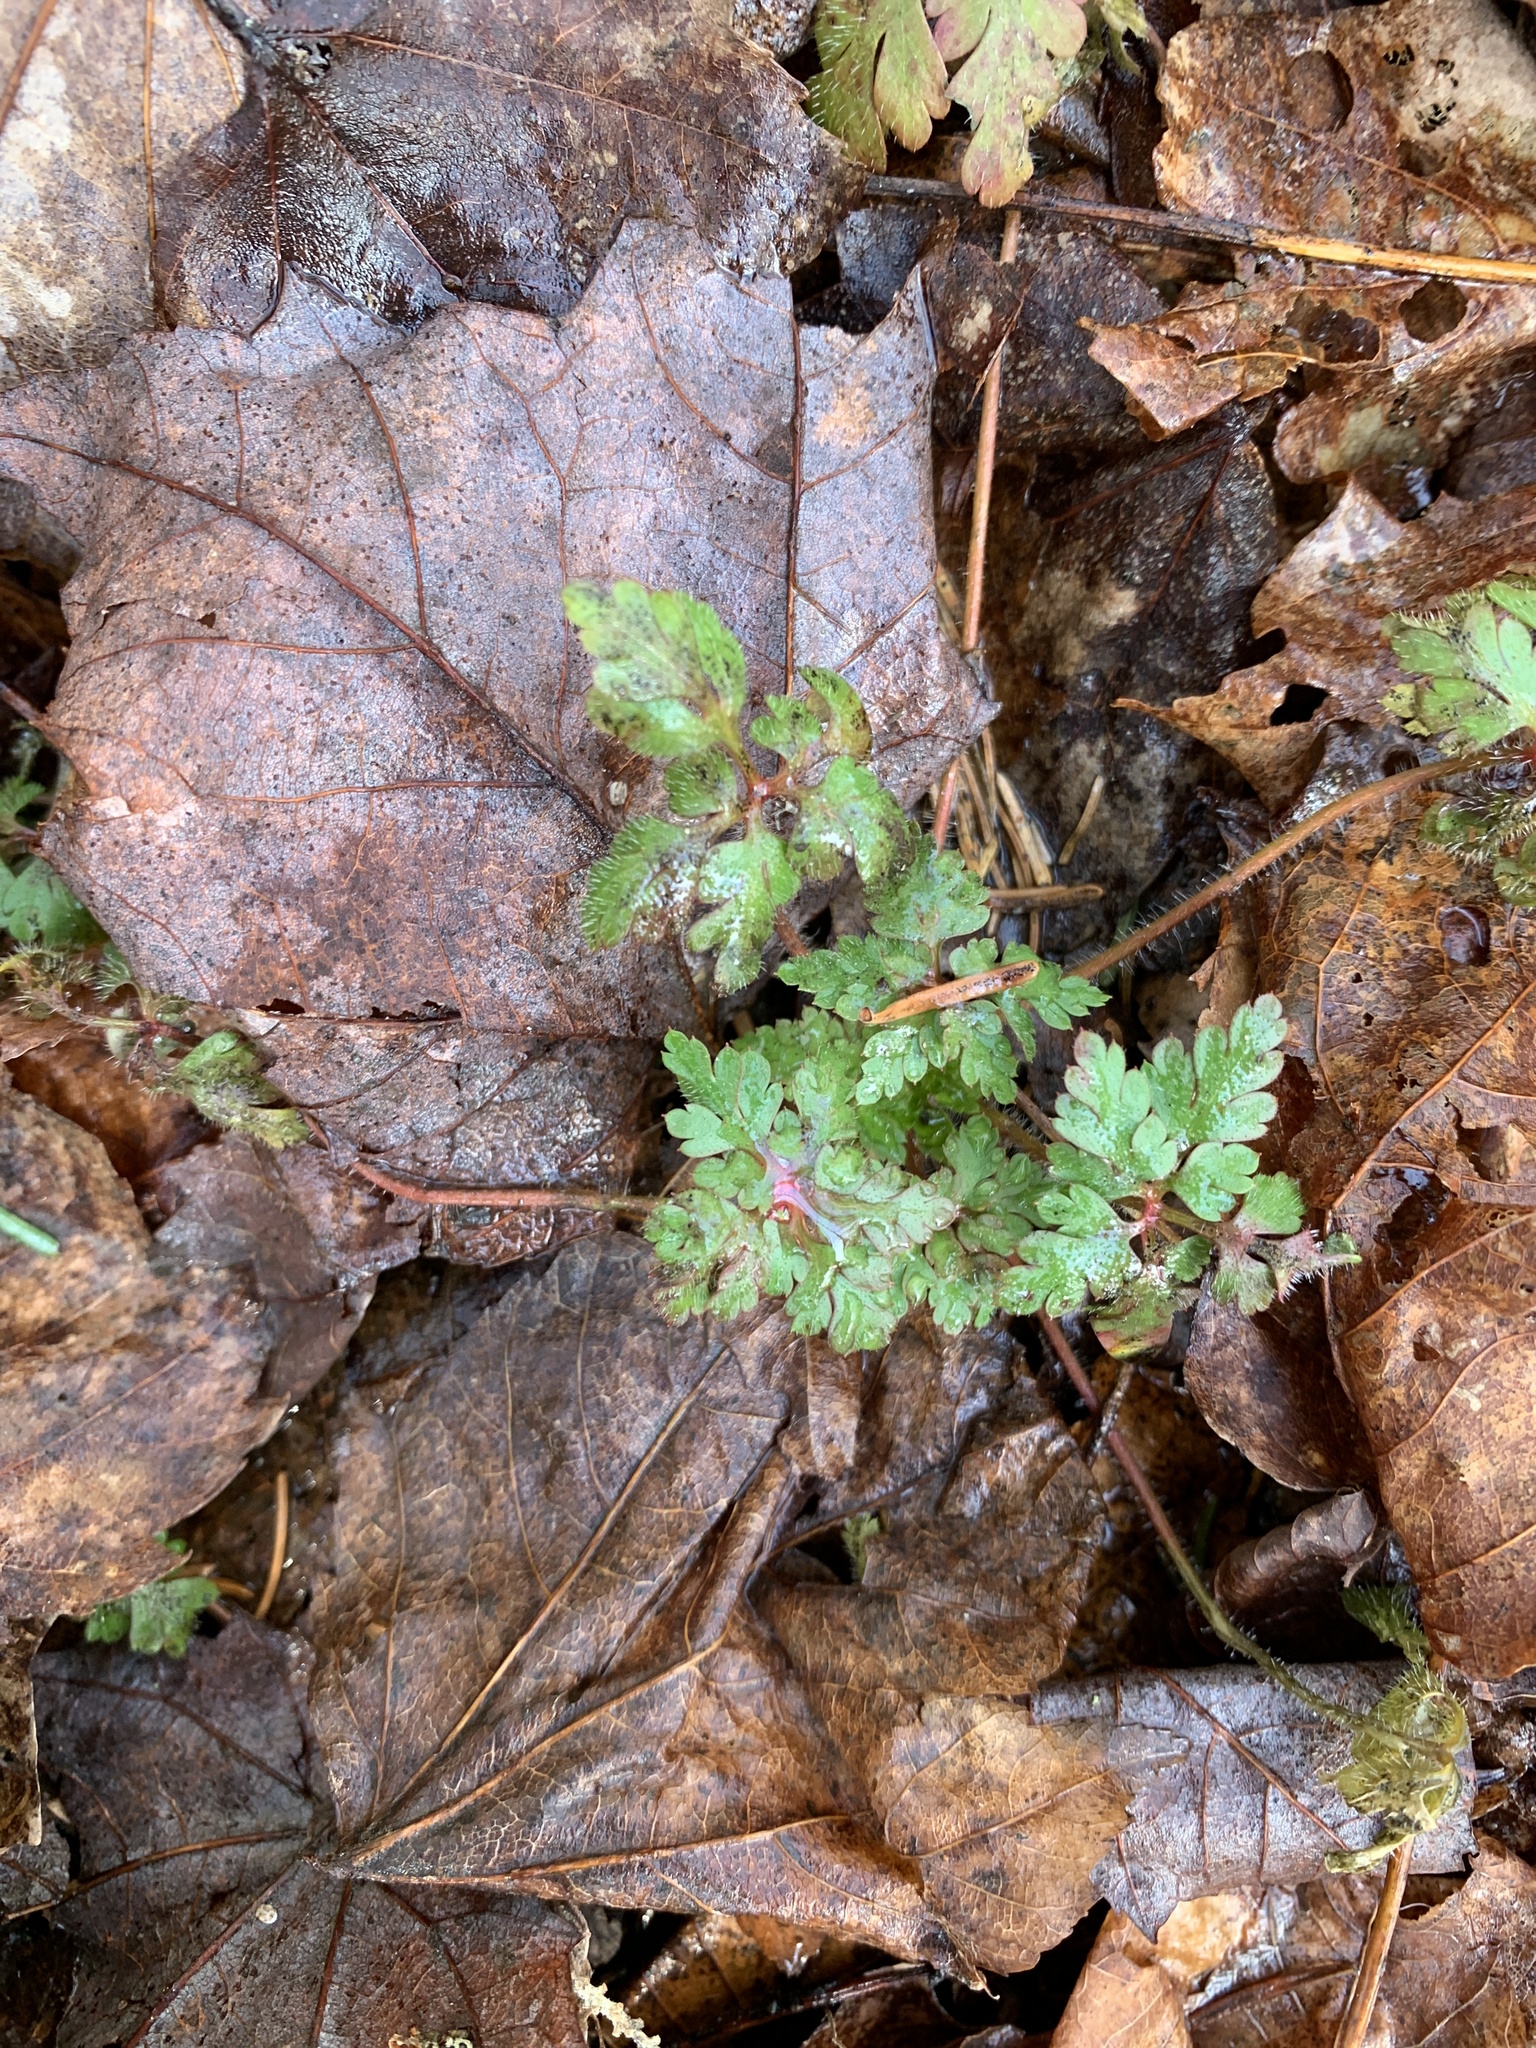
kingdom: Plantae
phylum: Tracheophyta
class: Magnoliopsida
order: Geraniales
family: Geraniaceae
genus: Geranium
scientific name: Geranium robertianum
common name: Herb-robert
